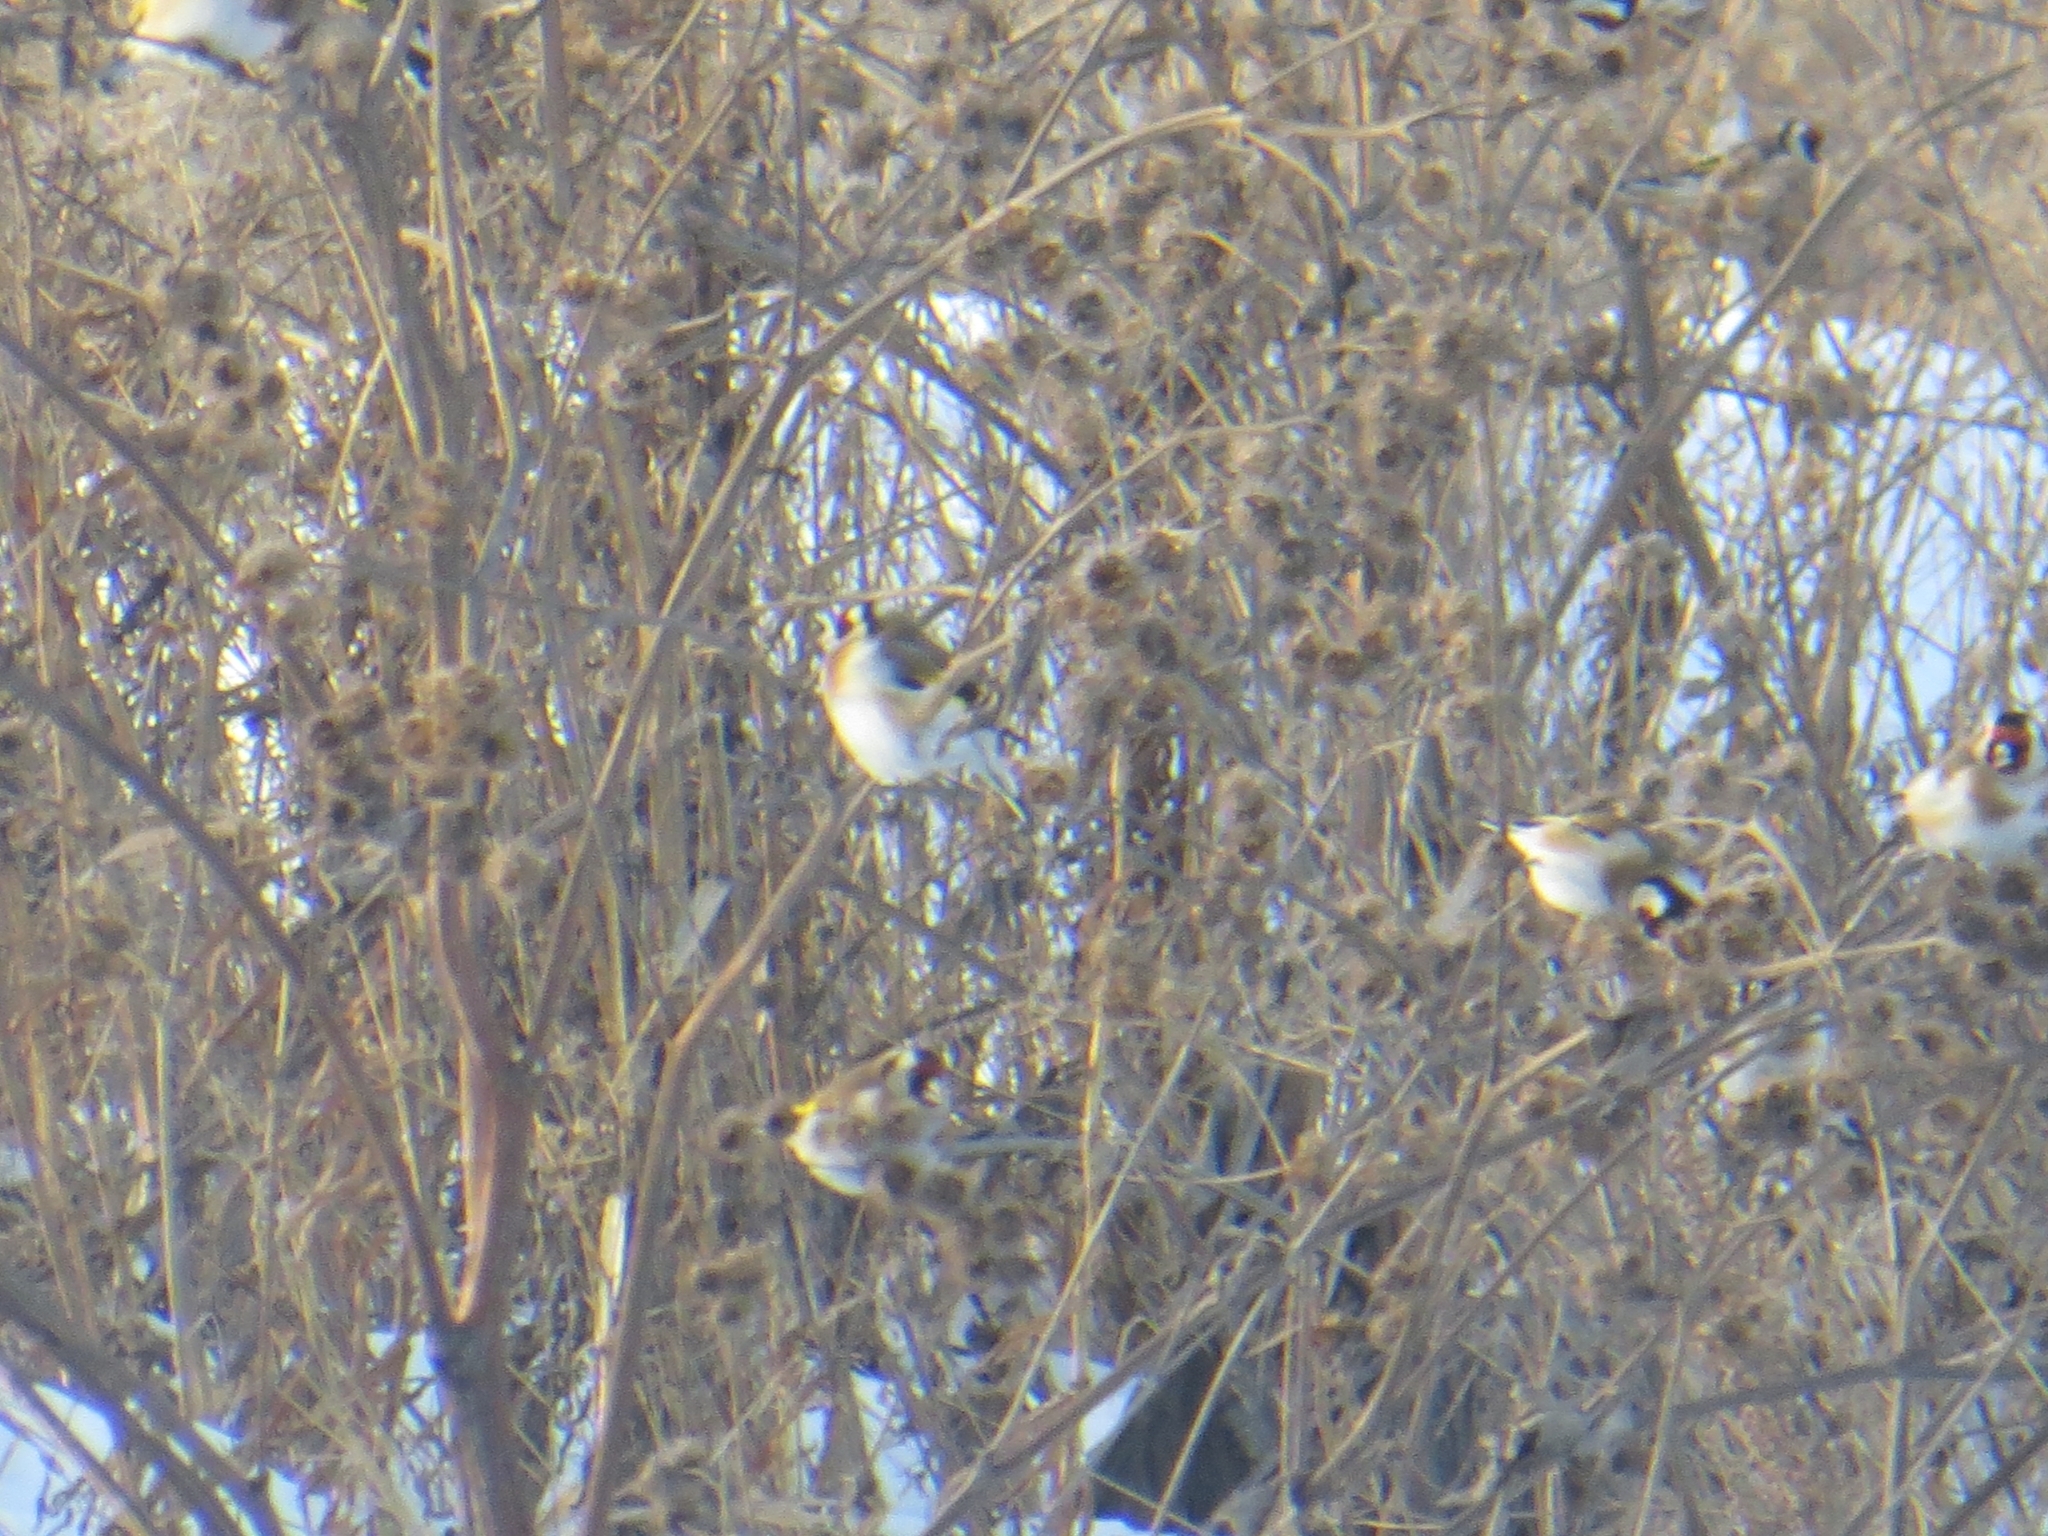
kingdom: Animalia
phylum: Chordata
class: Aves
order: Passeriformes
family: Fringillidae
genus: Carduelis
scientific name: Carduelis carduelis
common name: European goldfinch
